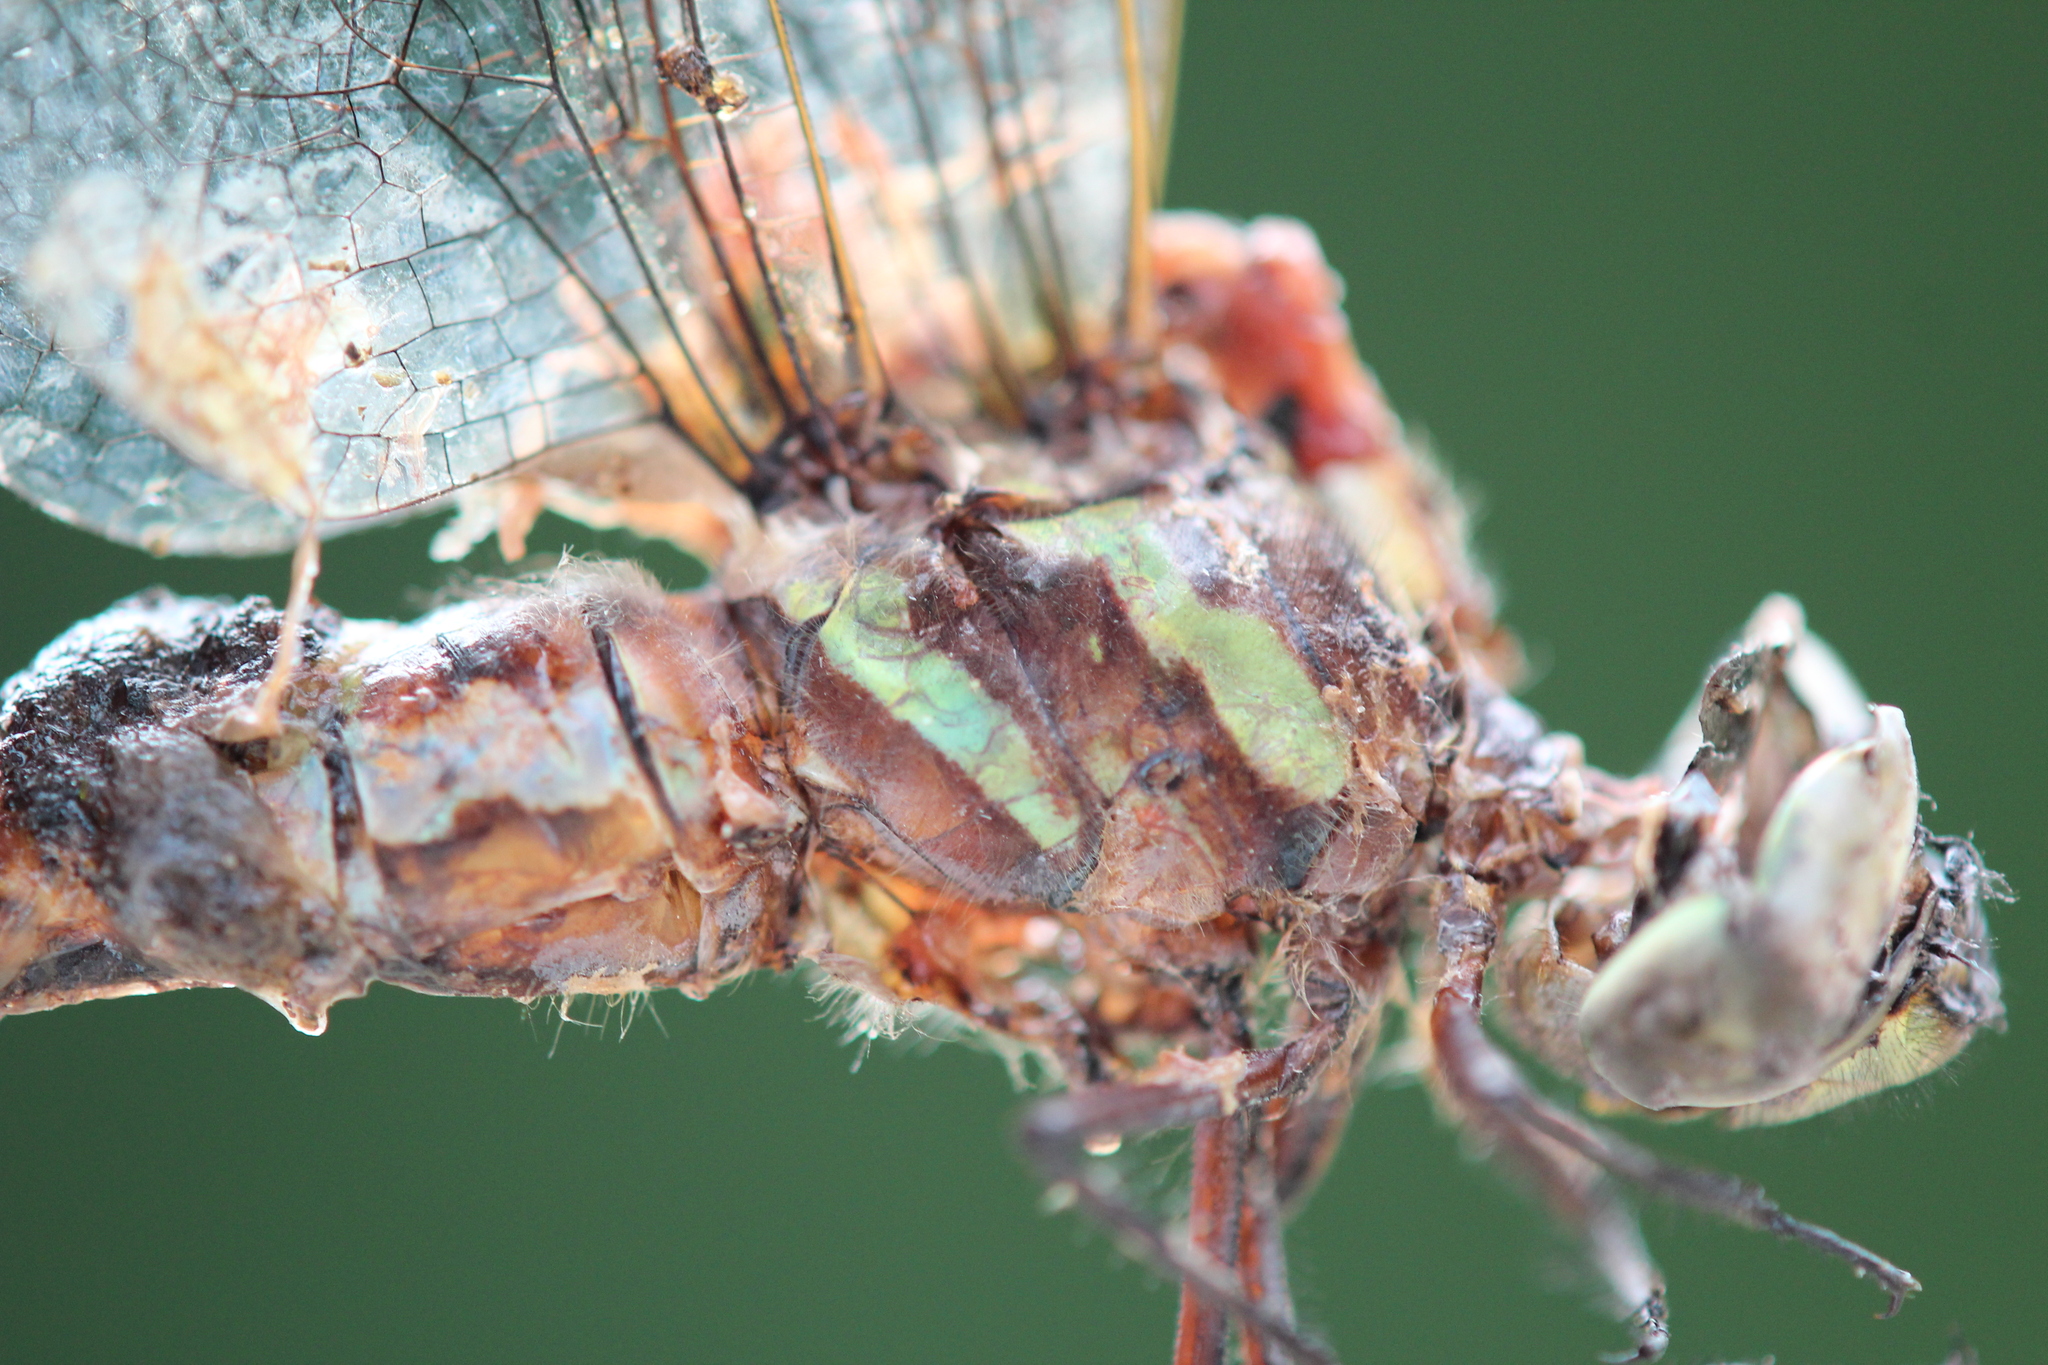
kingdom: Animalia
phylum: Arthropoda
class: Insecta
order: Odonata
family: Aeshnidae
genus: Aeshna
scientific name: Aeshna verticalis
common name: Green-striped darner
